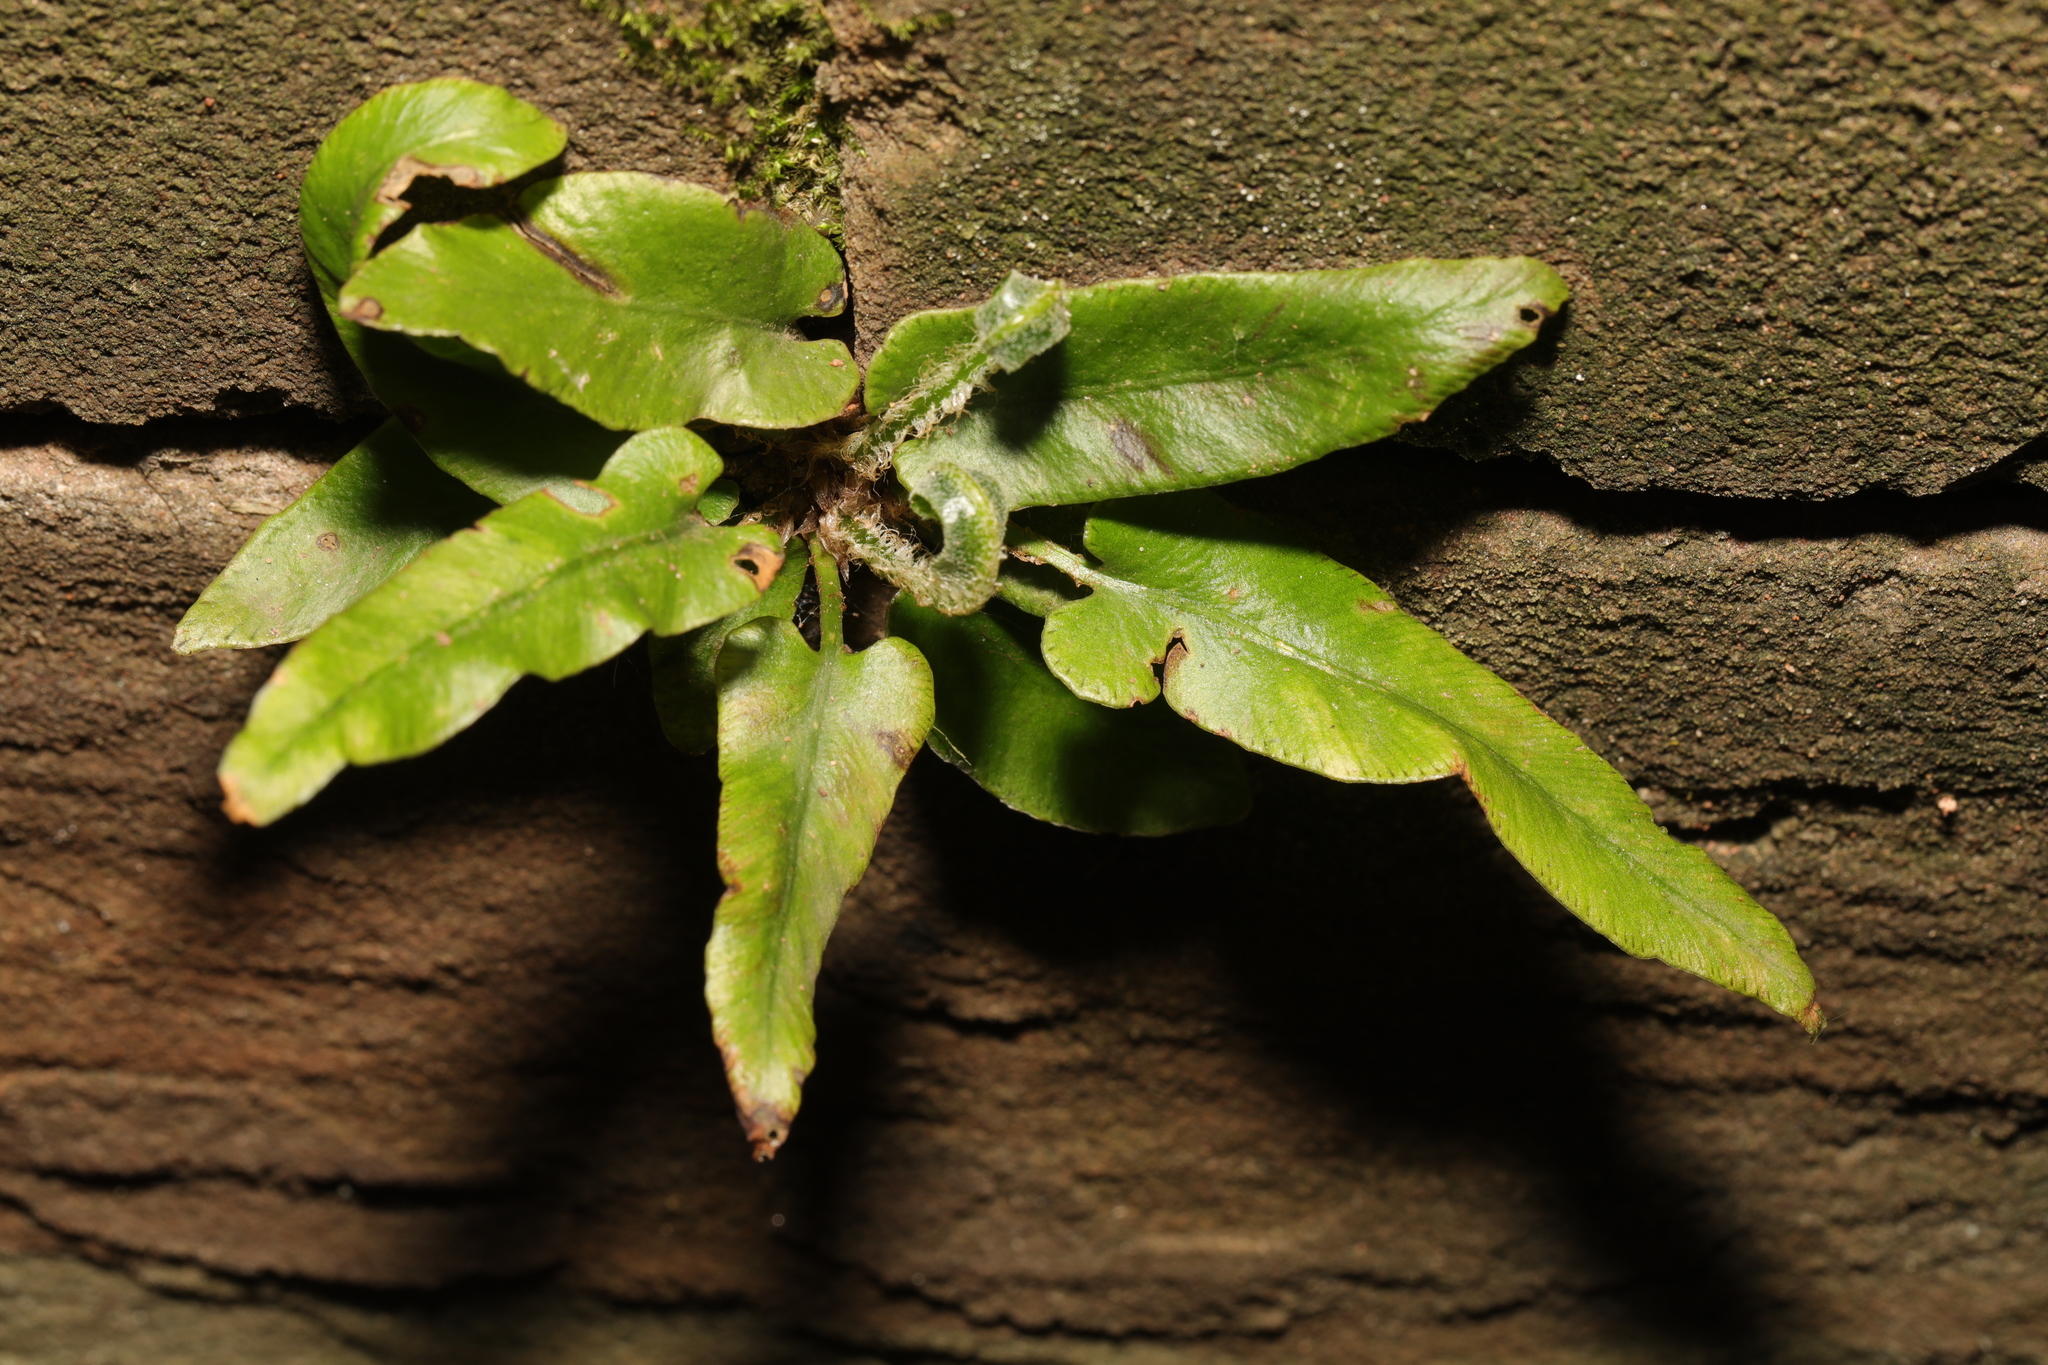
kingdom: Plantae
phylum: Tracheophyta
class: Polypodiopsida
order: Polypodiales
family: Aspleniaceae
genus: Asplenium
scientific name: Asplenium scolopendrium
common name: Hart's-tongue fern
